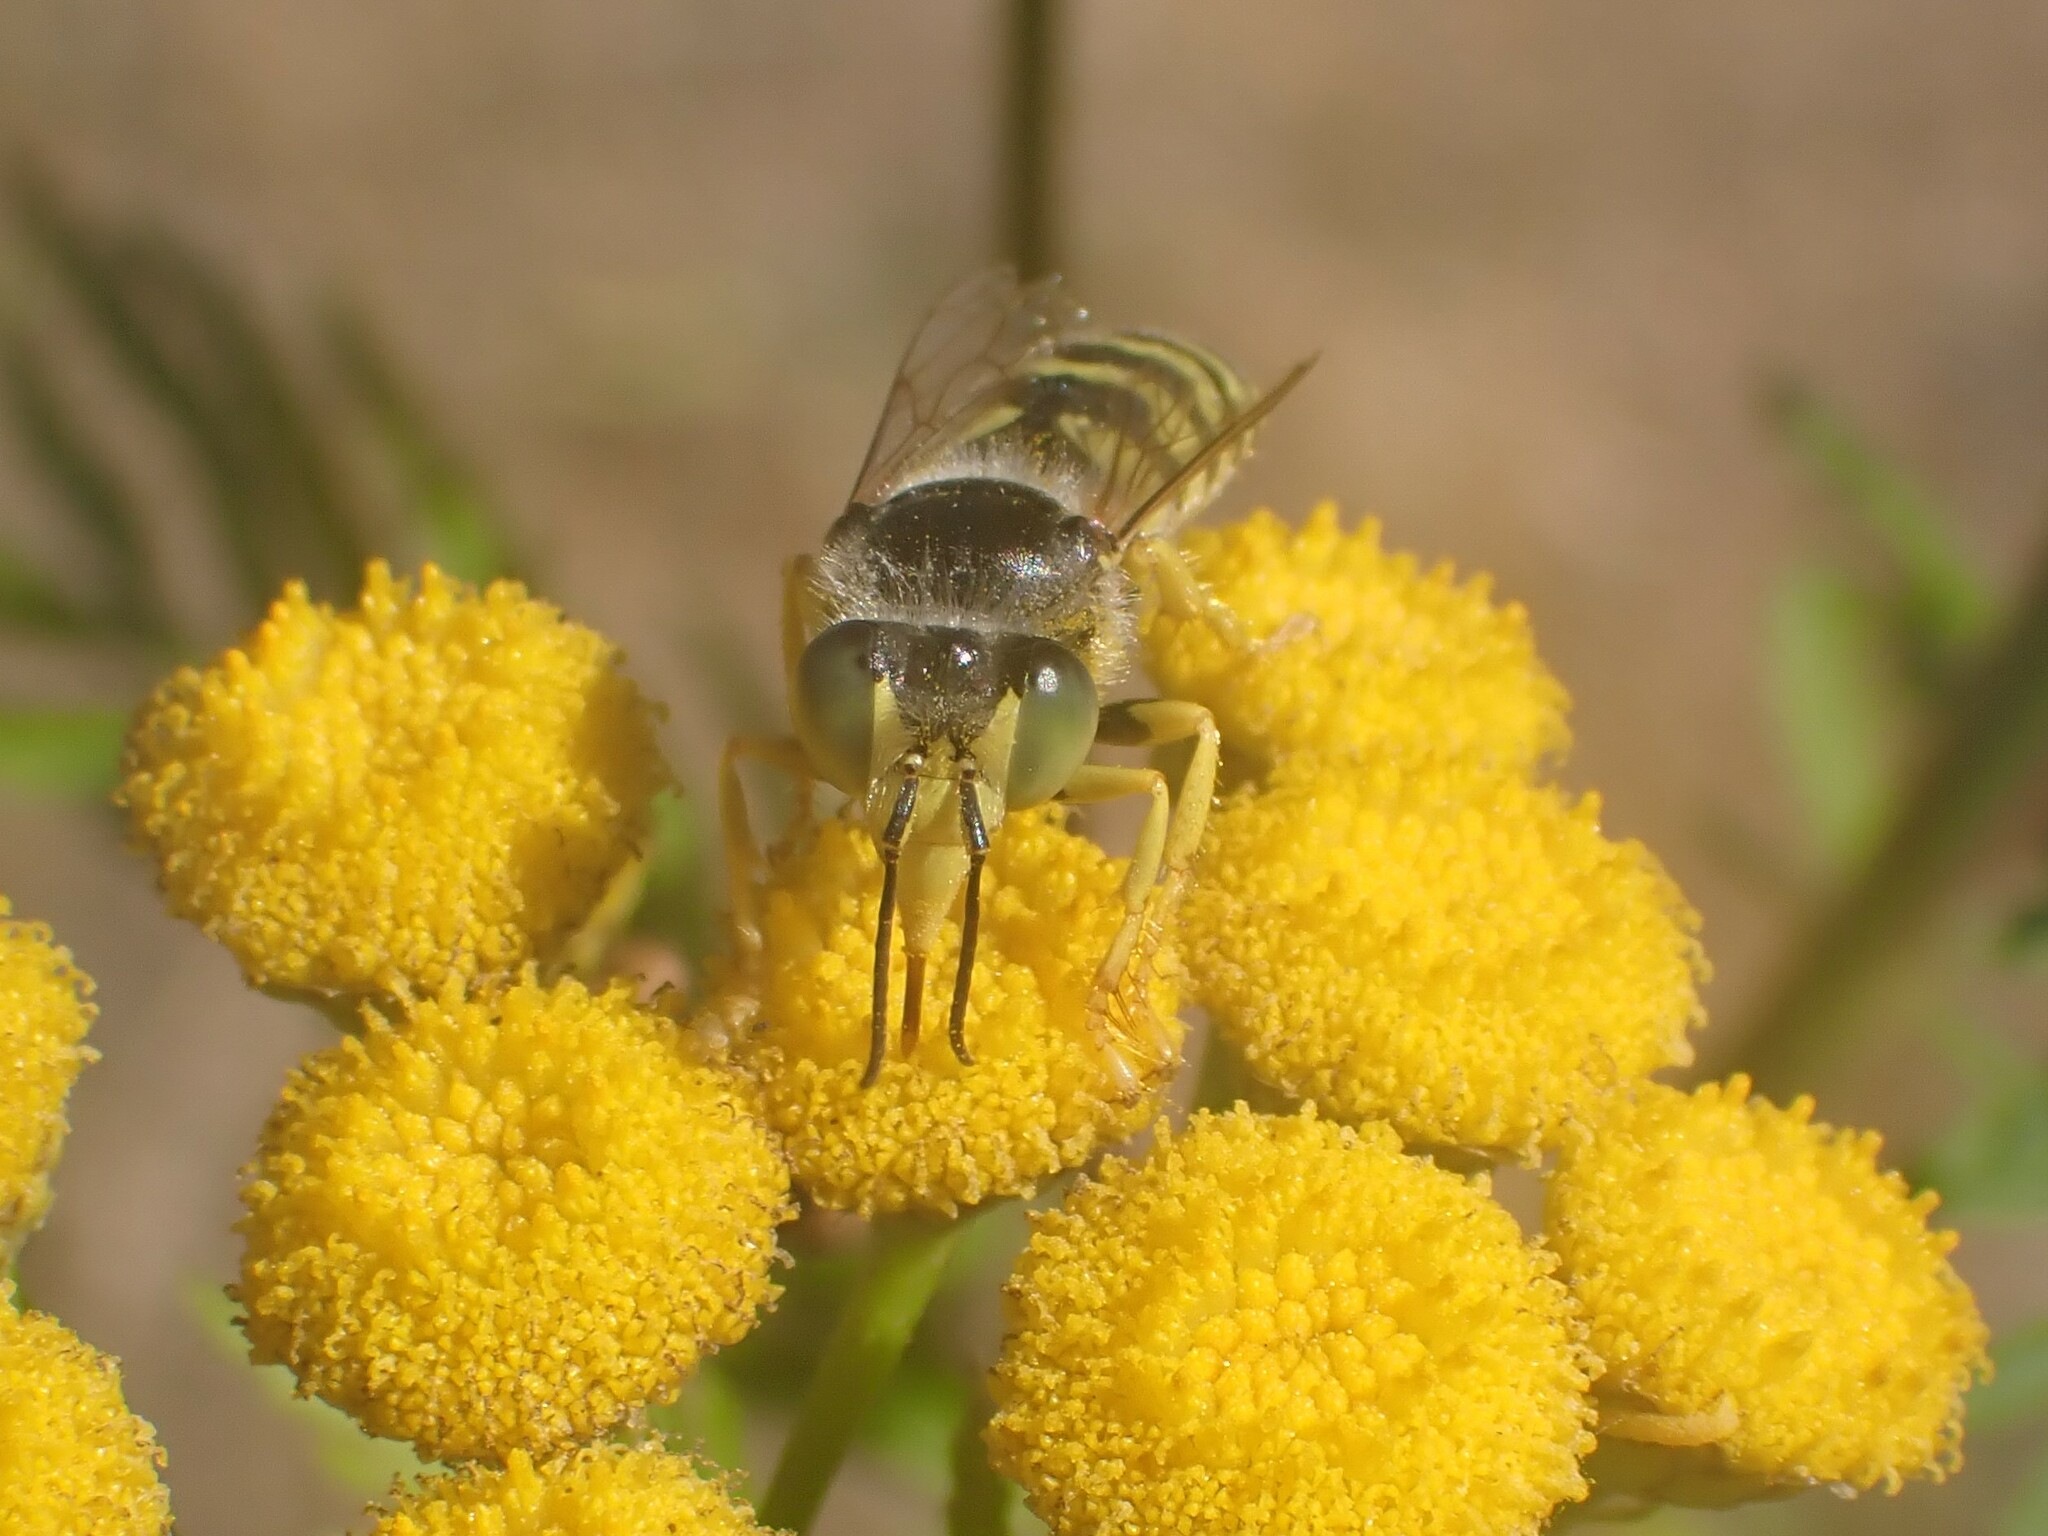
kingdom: Animalia
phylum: Arthropoda
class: Insecta
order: Hymenoptera
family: Crabronidae
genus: Bembix
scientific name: Bembix americana
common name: American sand wasp
